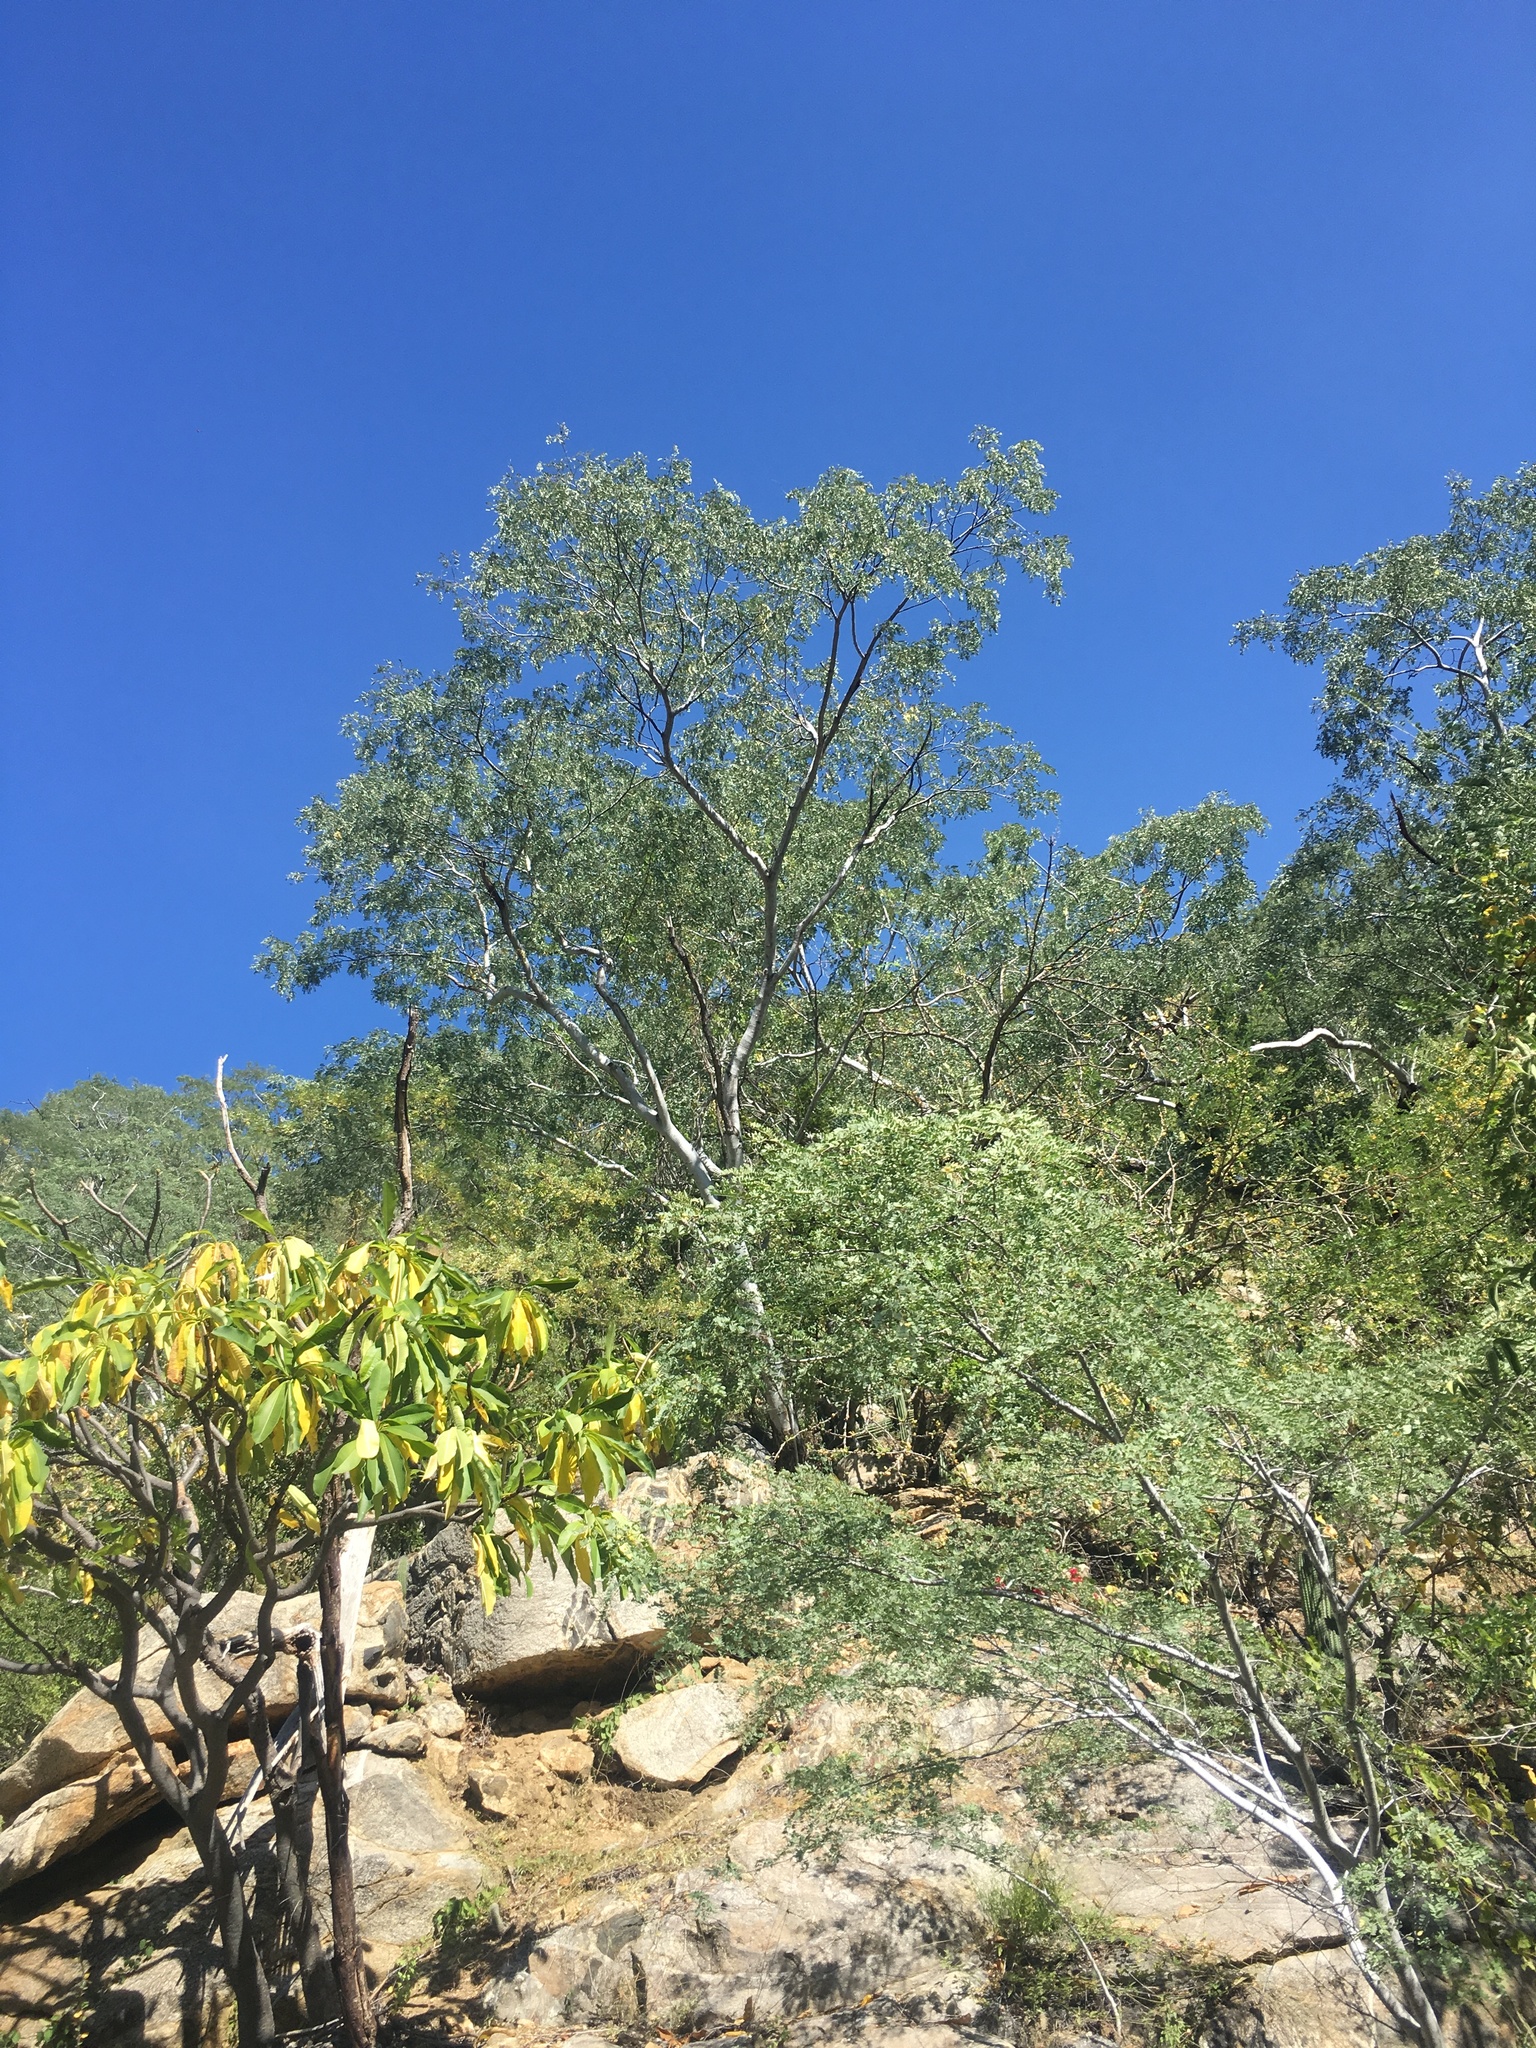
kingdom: Plantae
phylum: Tracheophyta
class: Magnoliopsida
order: Fabales
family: Fabaceae
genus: Lysiloma
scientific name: Lysiloma candidum
